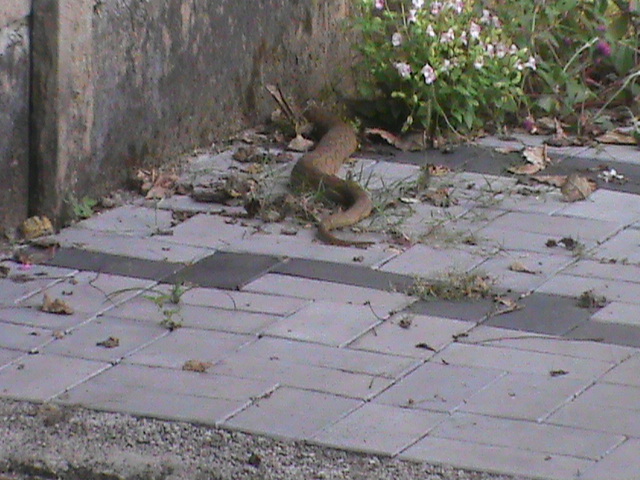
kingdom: Animalia
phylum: Chordata
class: Squamata
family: Viperidae
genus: Daboia
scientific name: Daboia russelii
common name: Western russel’s viper
